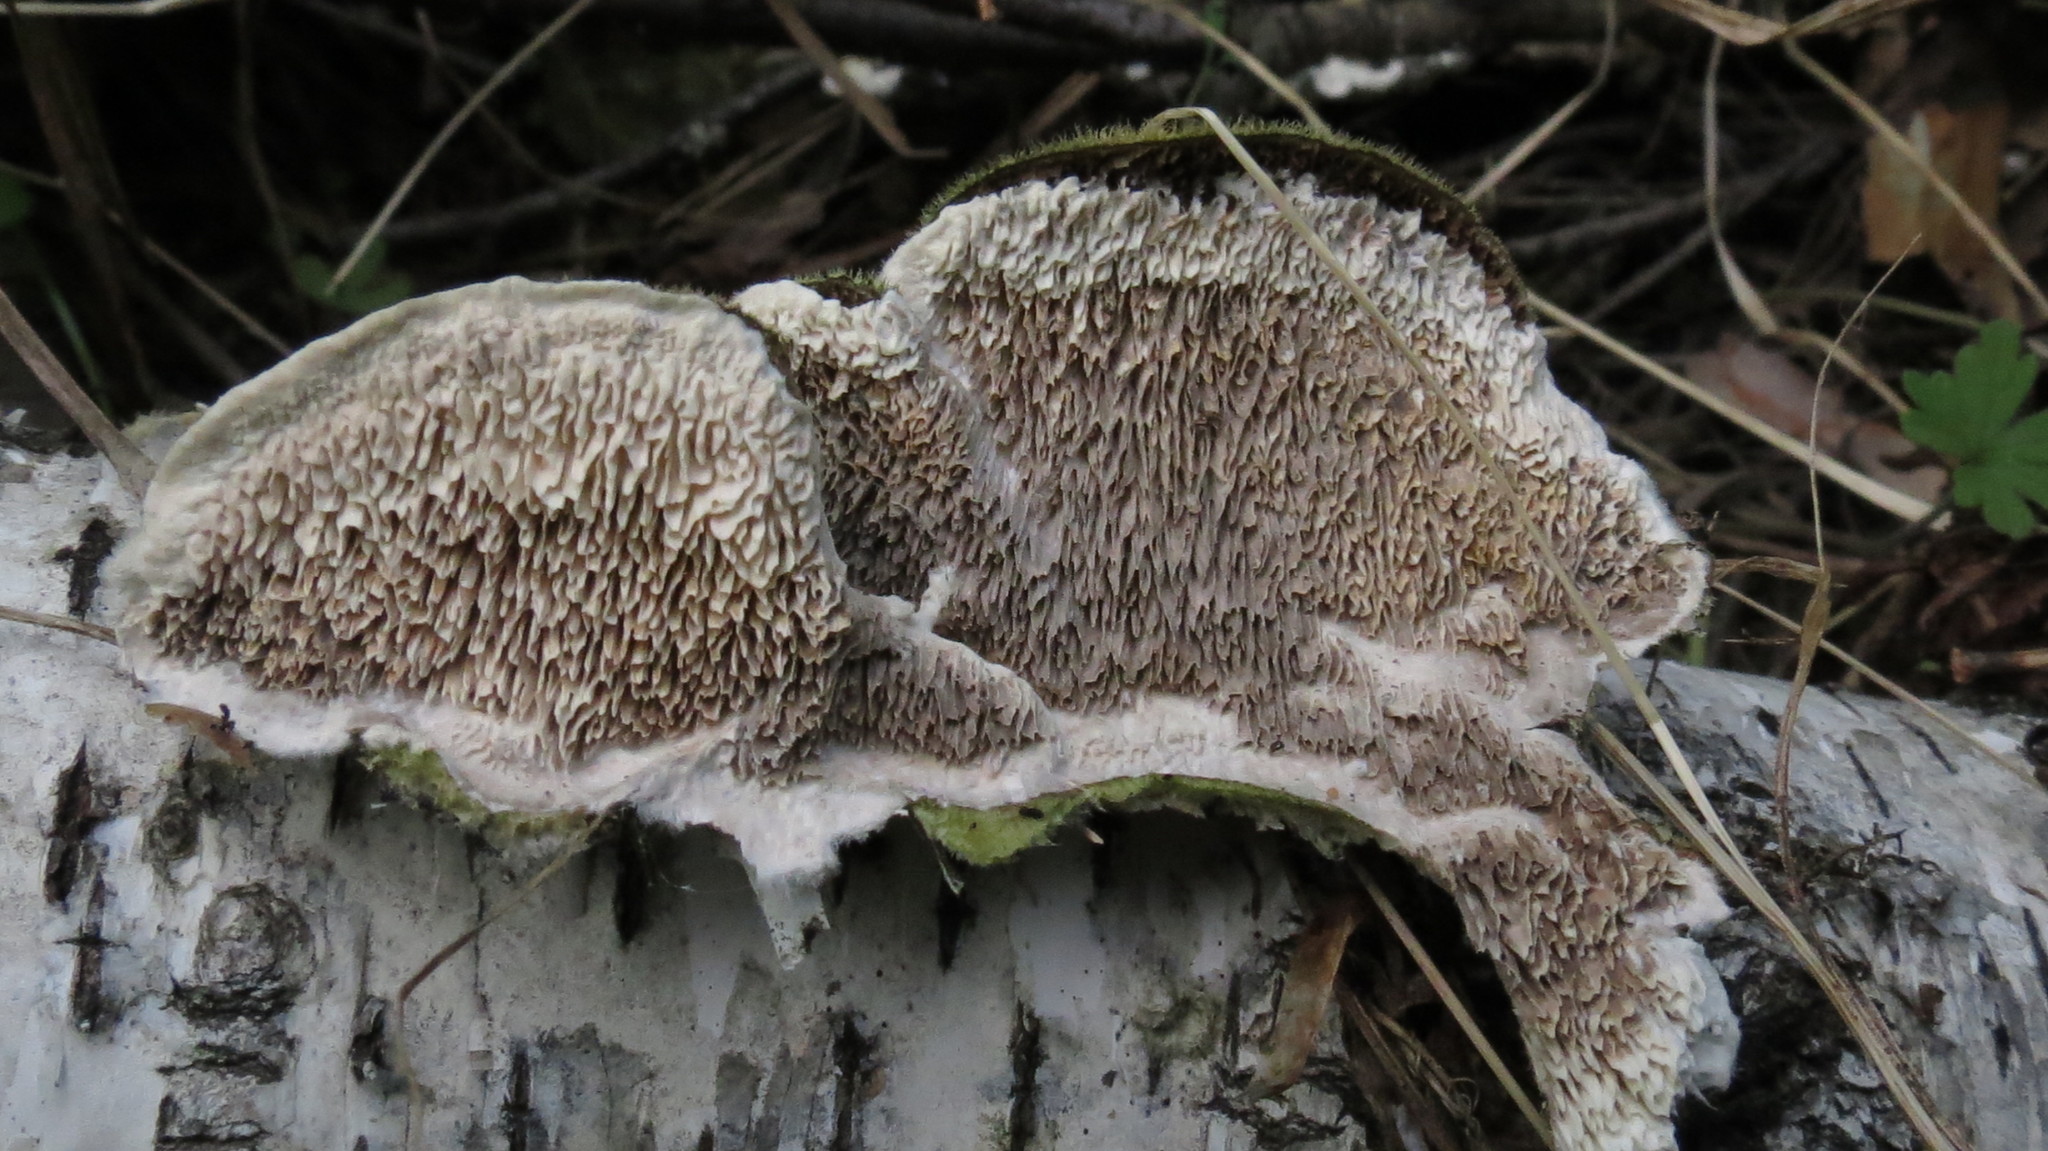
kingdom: Fungi
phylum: Basidiomycota
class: Agaricomycetes
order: Polyporales
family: Cerrenaceae
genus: Cerrena
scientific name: Cerrena unicolor
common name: Mossy maze polypore
